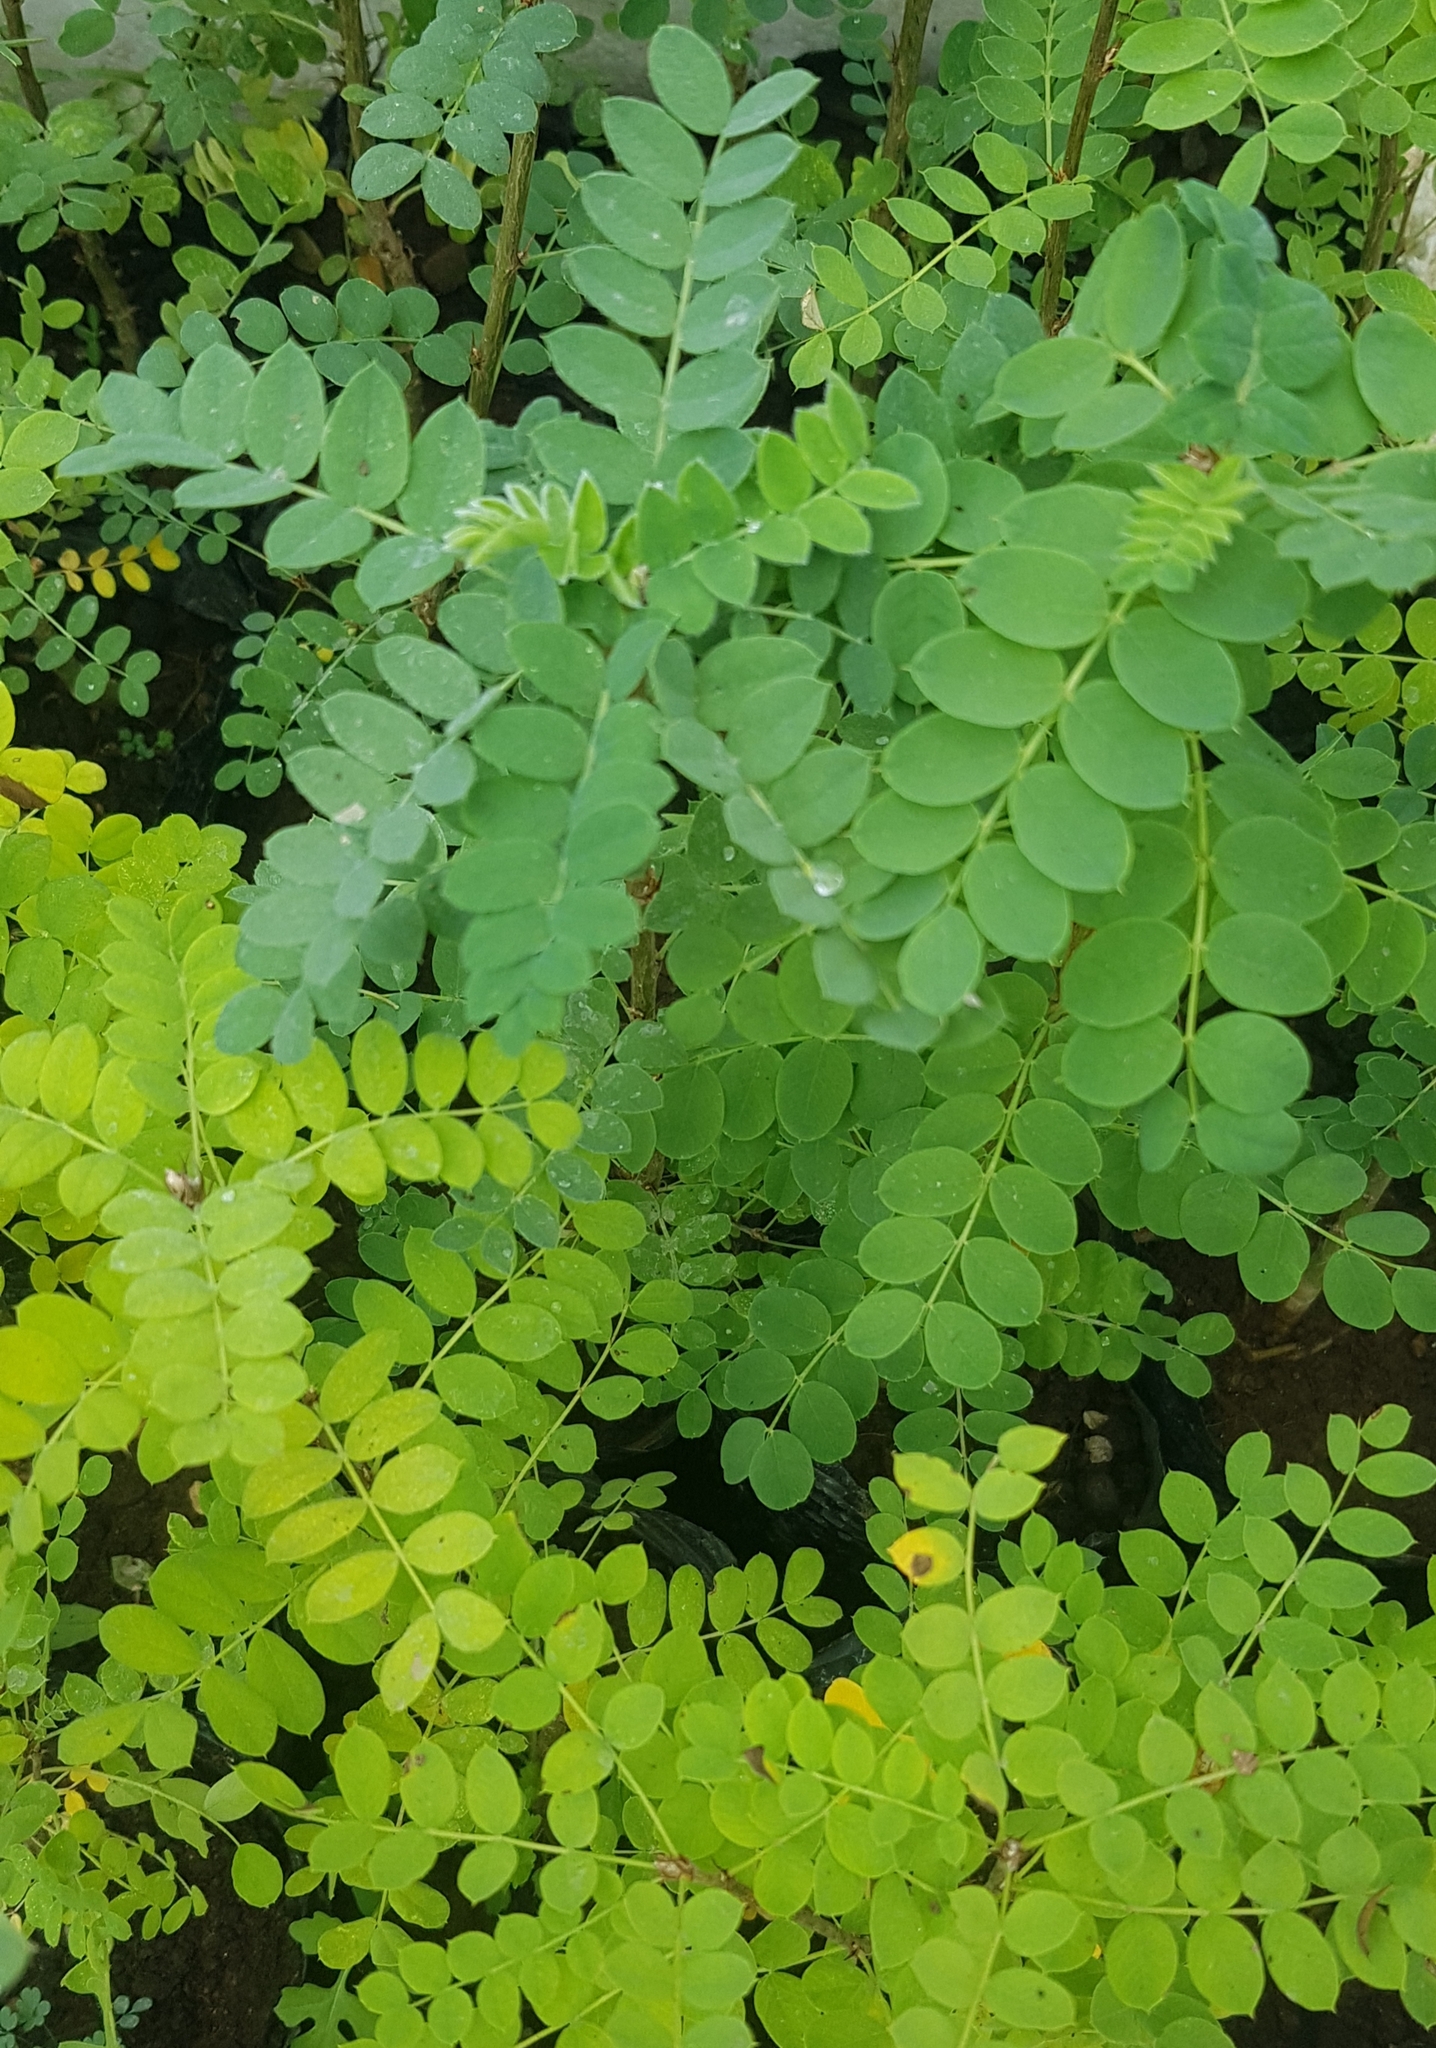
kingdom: Plantae
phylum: Tracheophyta
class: Magnoliopsida
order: Fabales
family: Fabaceae
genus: Caragana
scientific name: Caragana arborescens
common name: Siberian peashrub
